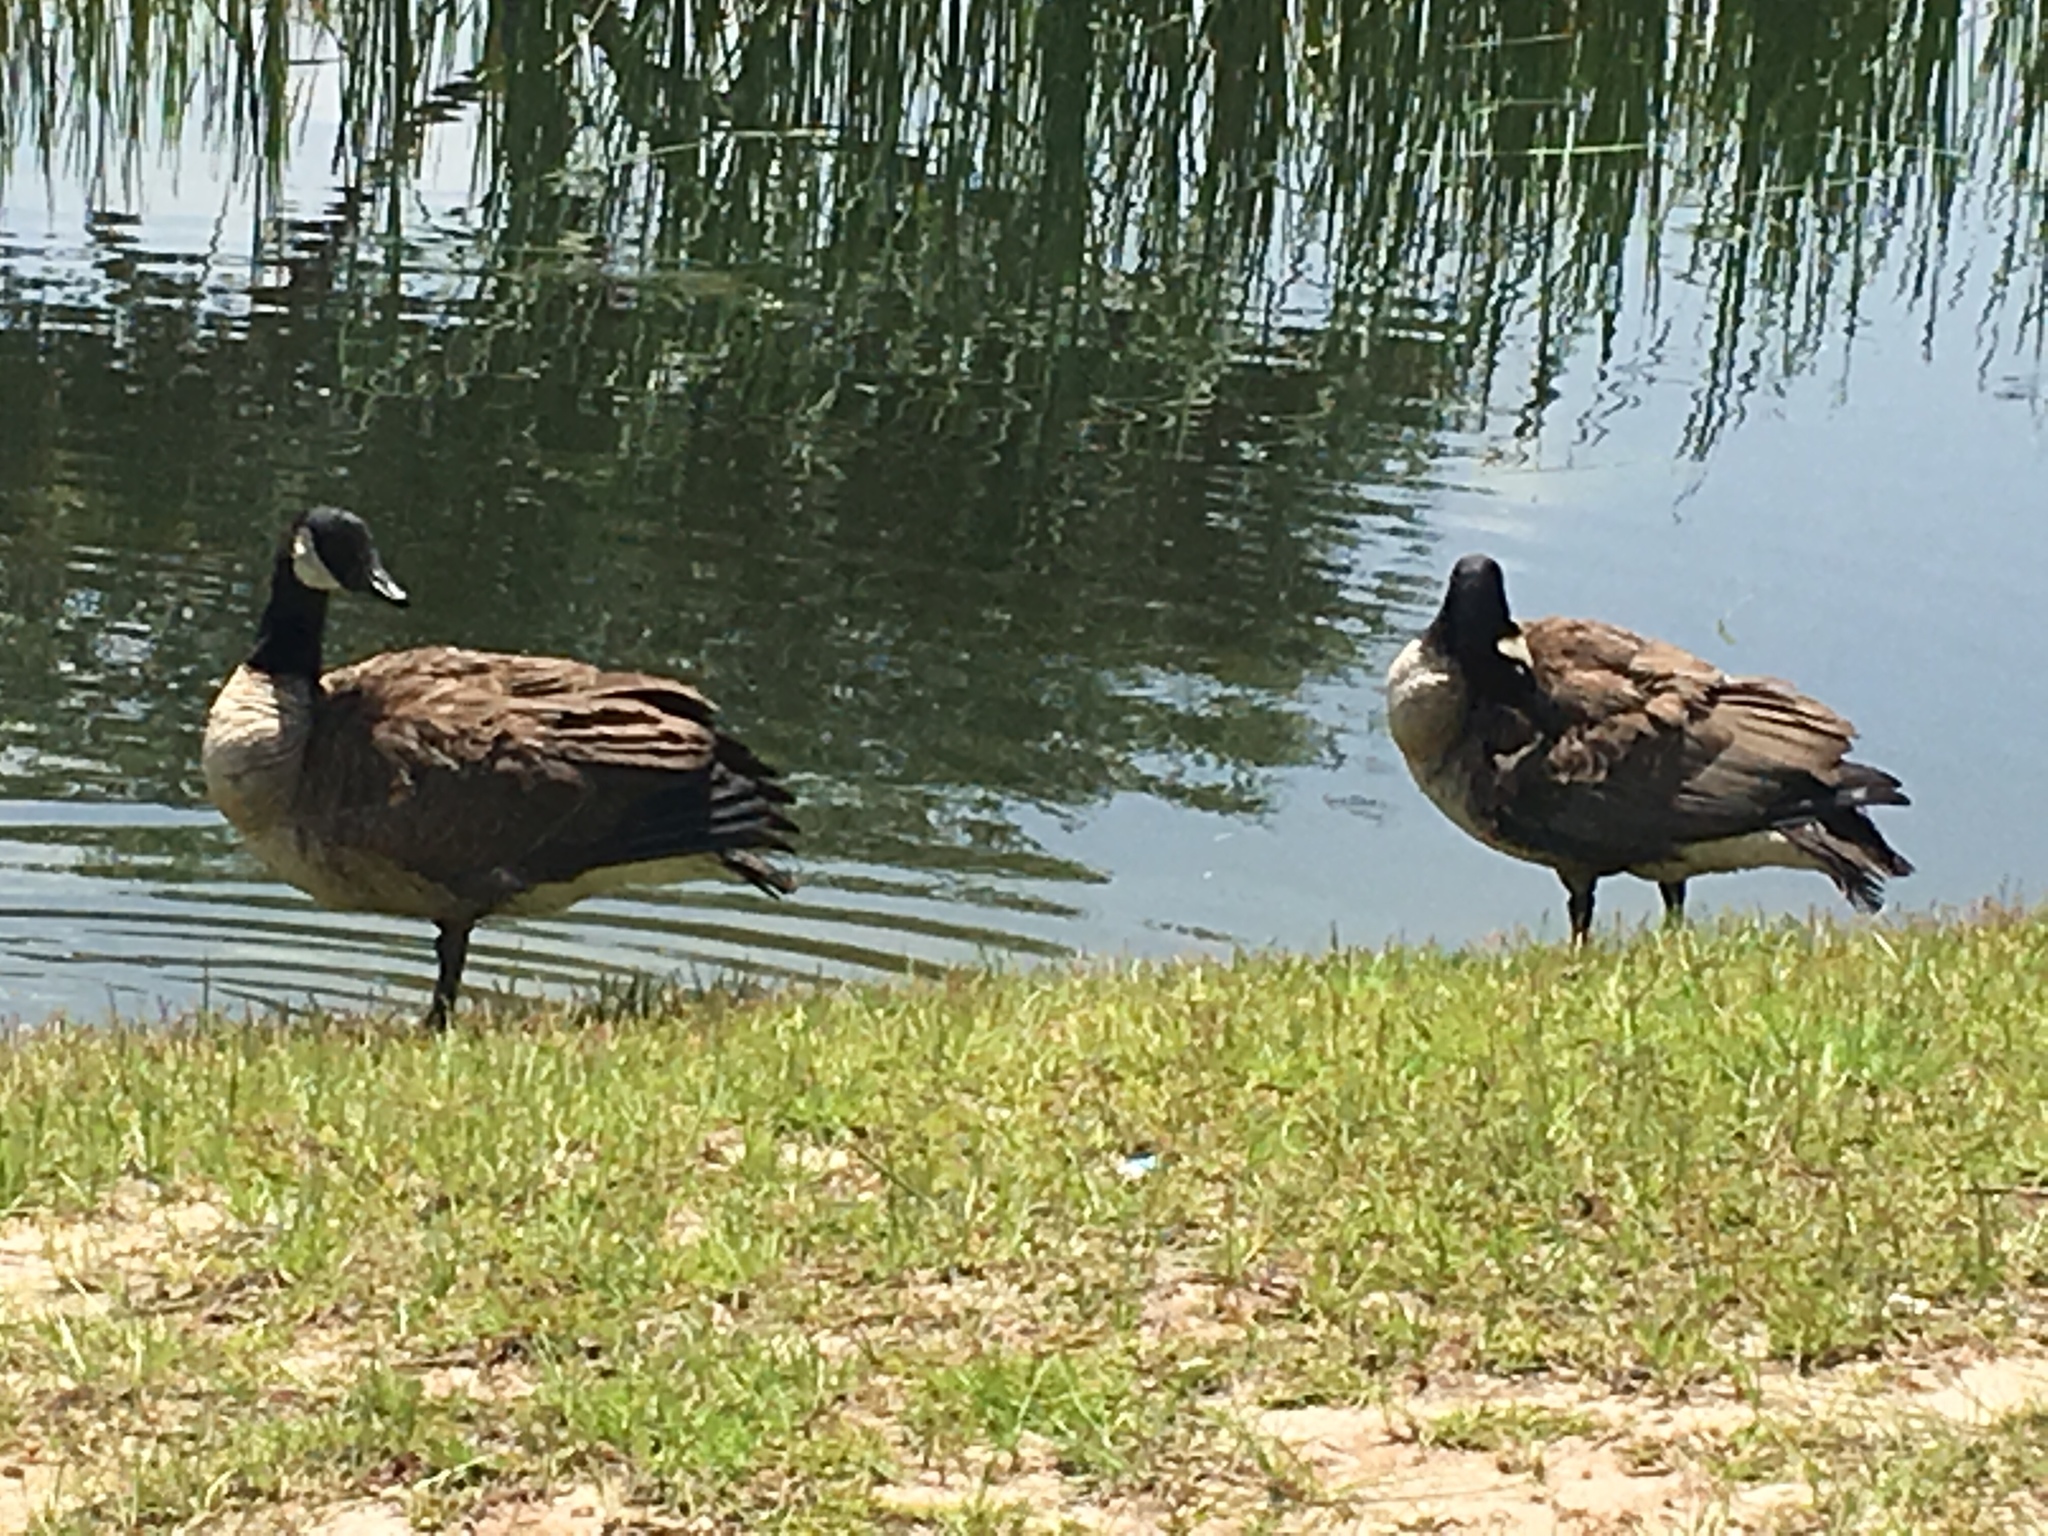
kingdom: Animalia
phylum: Chordata
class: Aves
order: Anseriformes
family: Anatidae
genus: Branta
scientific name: Branta canadensis
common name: Canada goose
